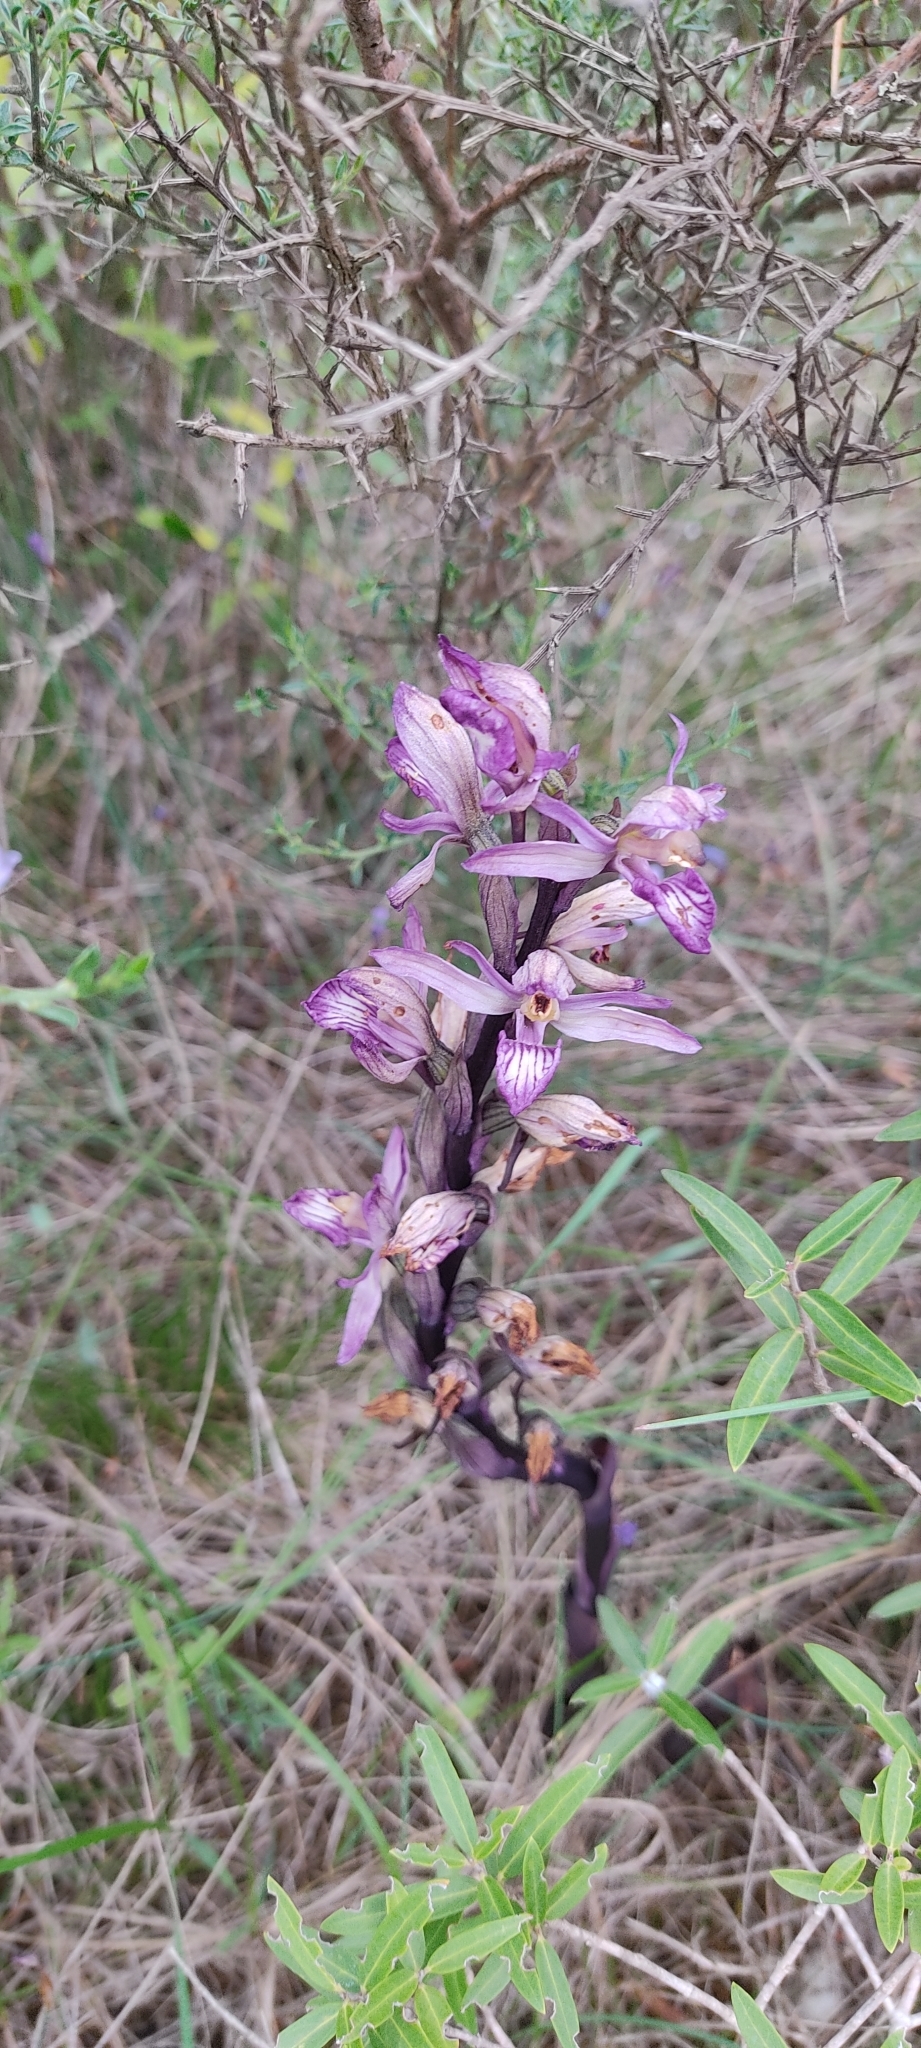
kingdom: Plantae
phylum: Tracheophyta
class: Liliopsida
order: Asparagales
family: Orchidaceae
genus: Limodorum
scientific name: Limodorum abortivum
